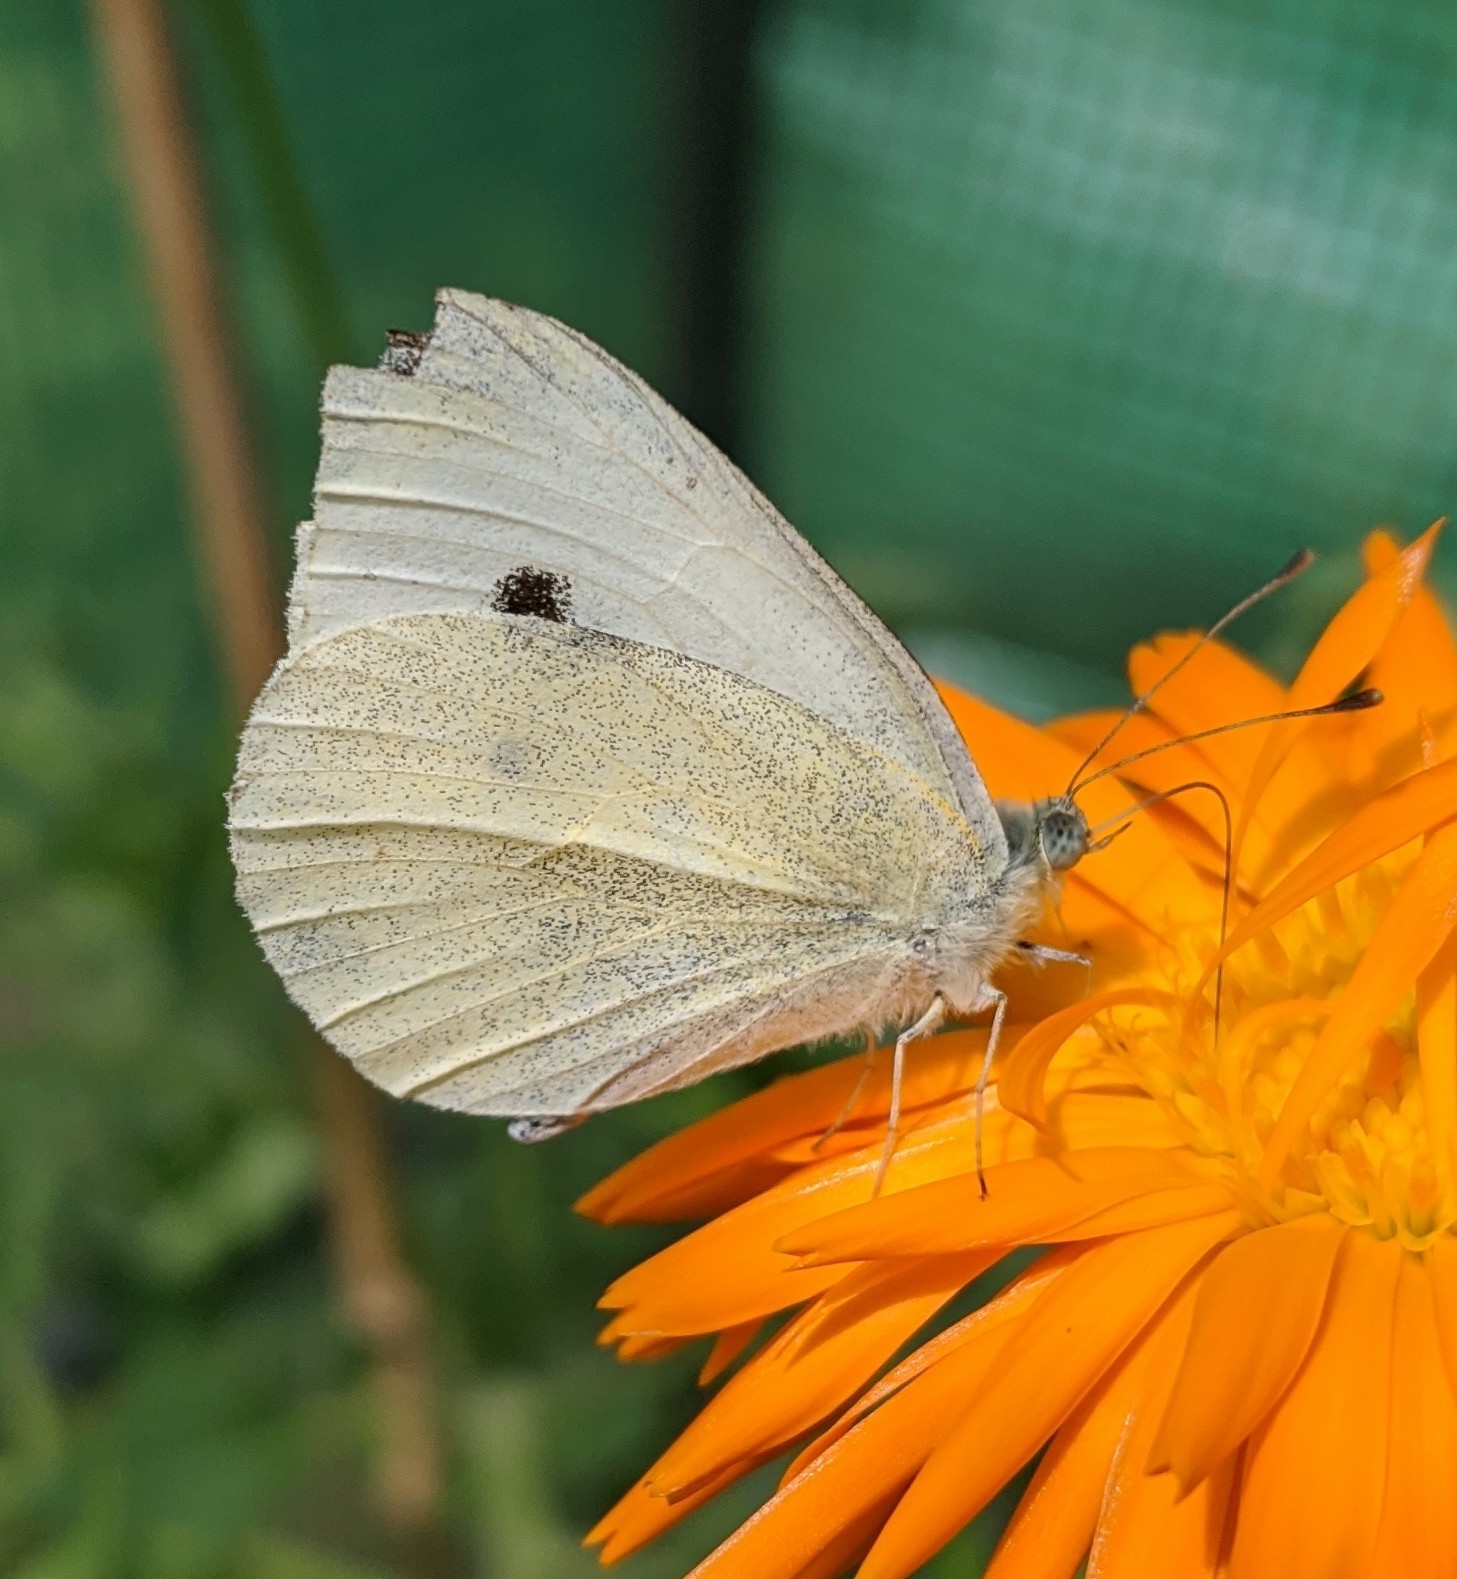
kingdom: Animalia
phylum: Arthropoda
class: Insecta
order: Lepidoptera
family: Pieridae
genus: Pieris
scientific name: Pieris rapae
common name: Small white
